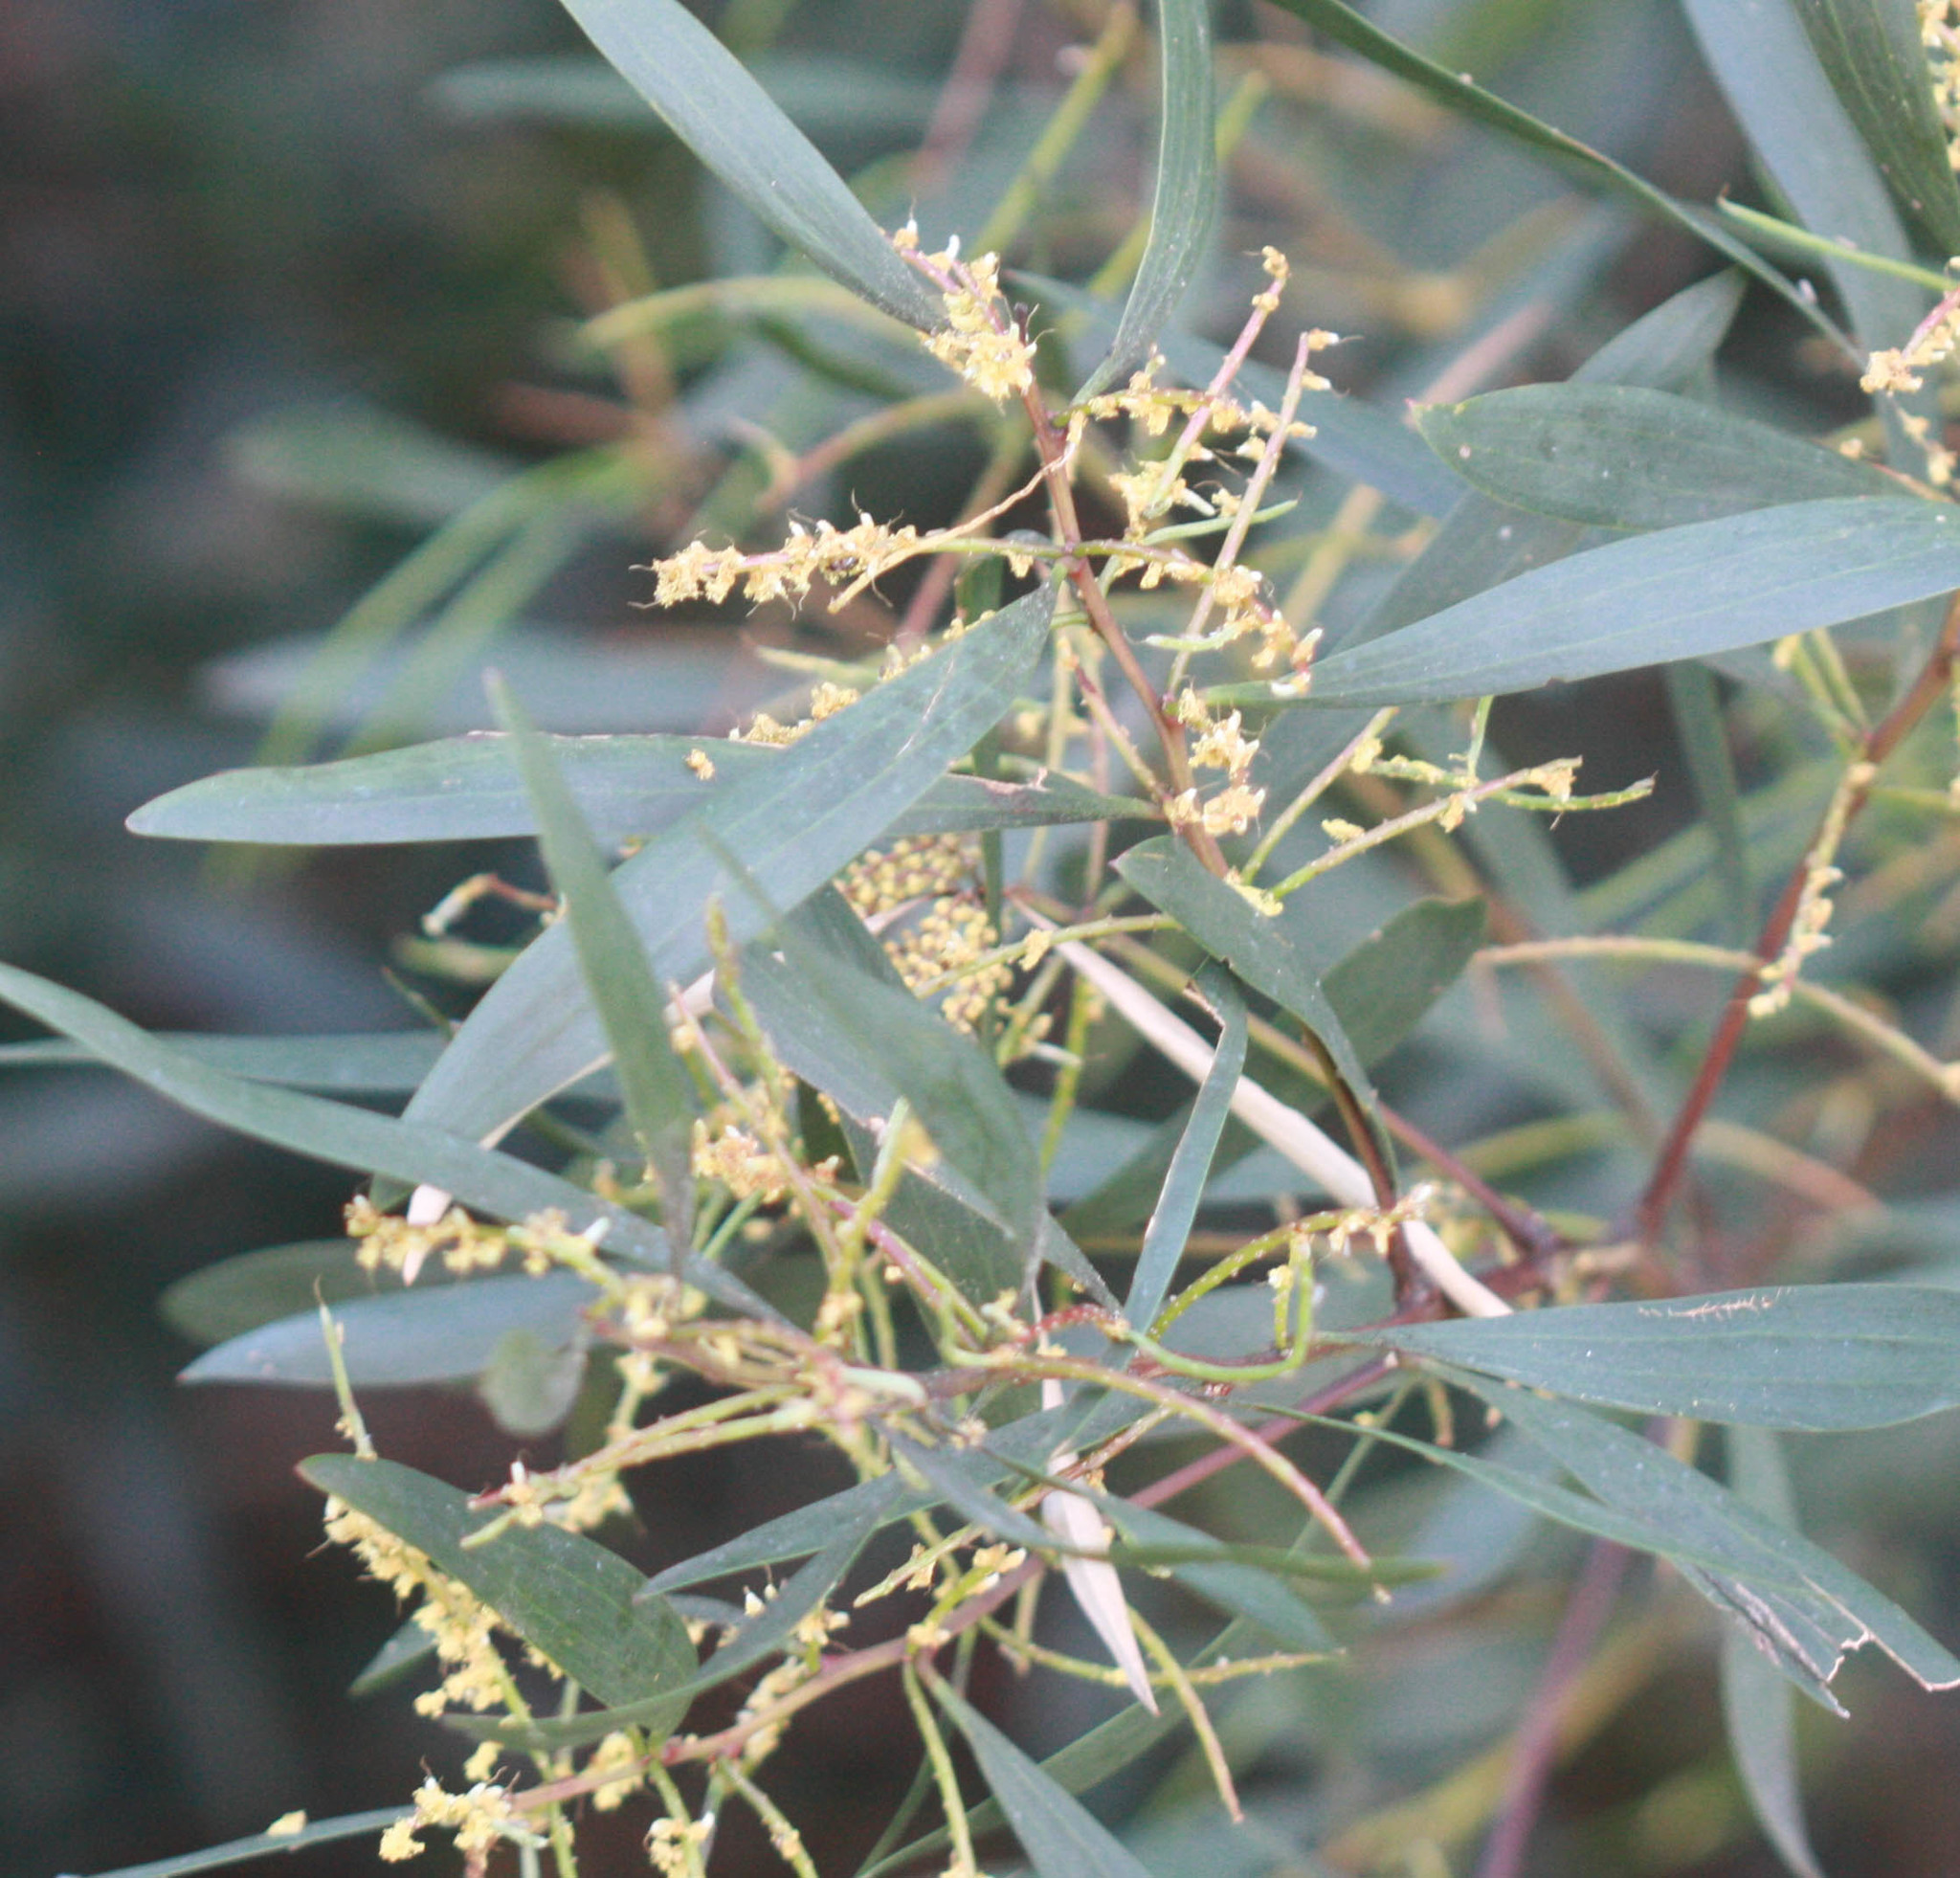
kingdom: Plantae
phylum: Tracheophyta
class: Magnoliopsida
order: Fabales
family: Fabaceae
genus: Acacia
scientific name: Acacia longifolia
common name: Sydney golden wattle
